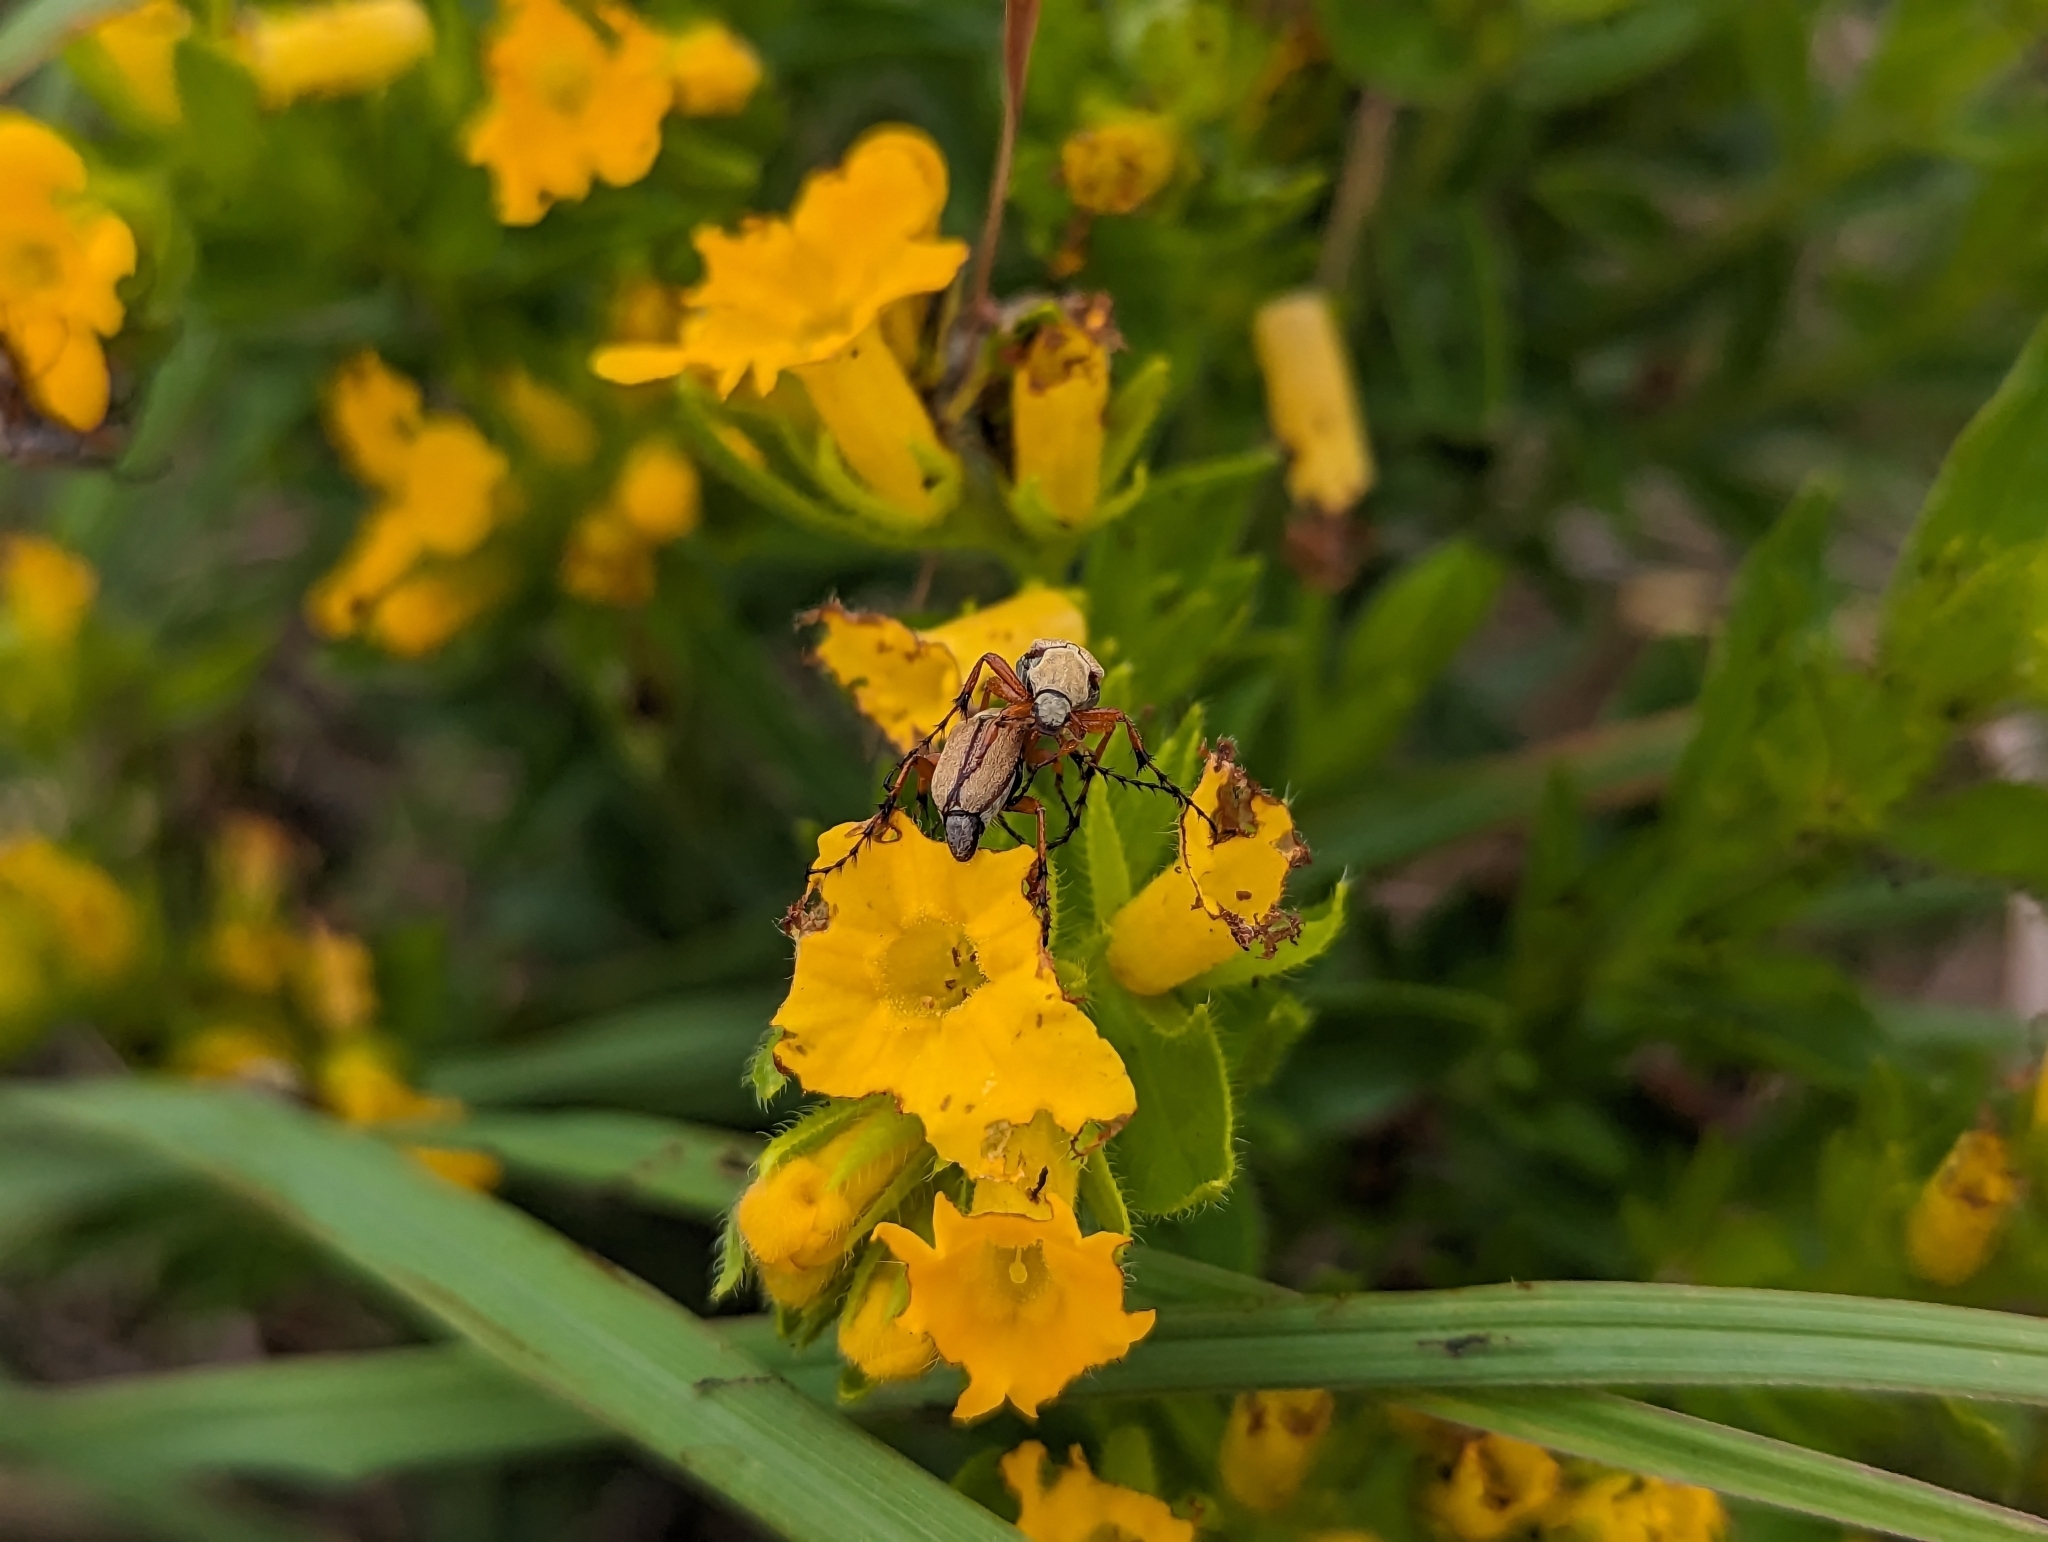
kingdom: Plantae
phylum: Tracheophyta
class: Magnoliopsida
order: Boraginales
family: Boraginaceae
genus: Lithospermum
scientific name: Lithospermum caroliniense
